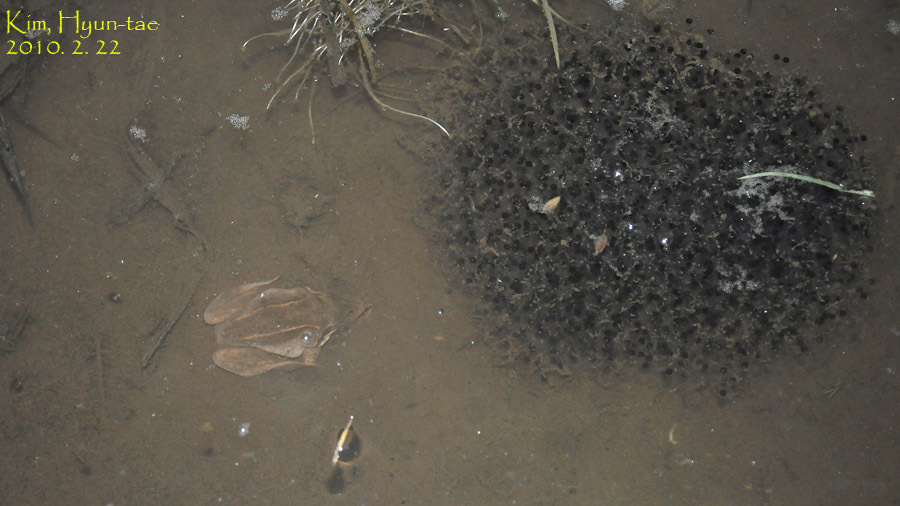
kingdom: Animalia
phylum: Chordata
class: Amphibia
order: Anura
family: Ranidae
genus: Rana
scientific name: Rana uenoi
